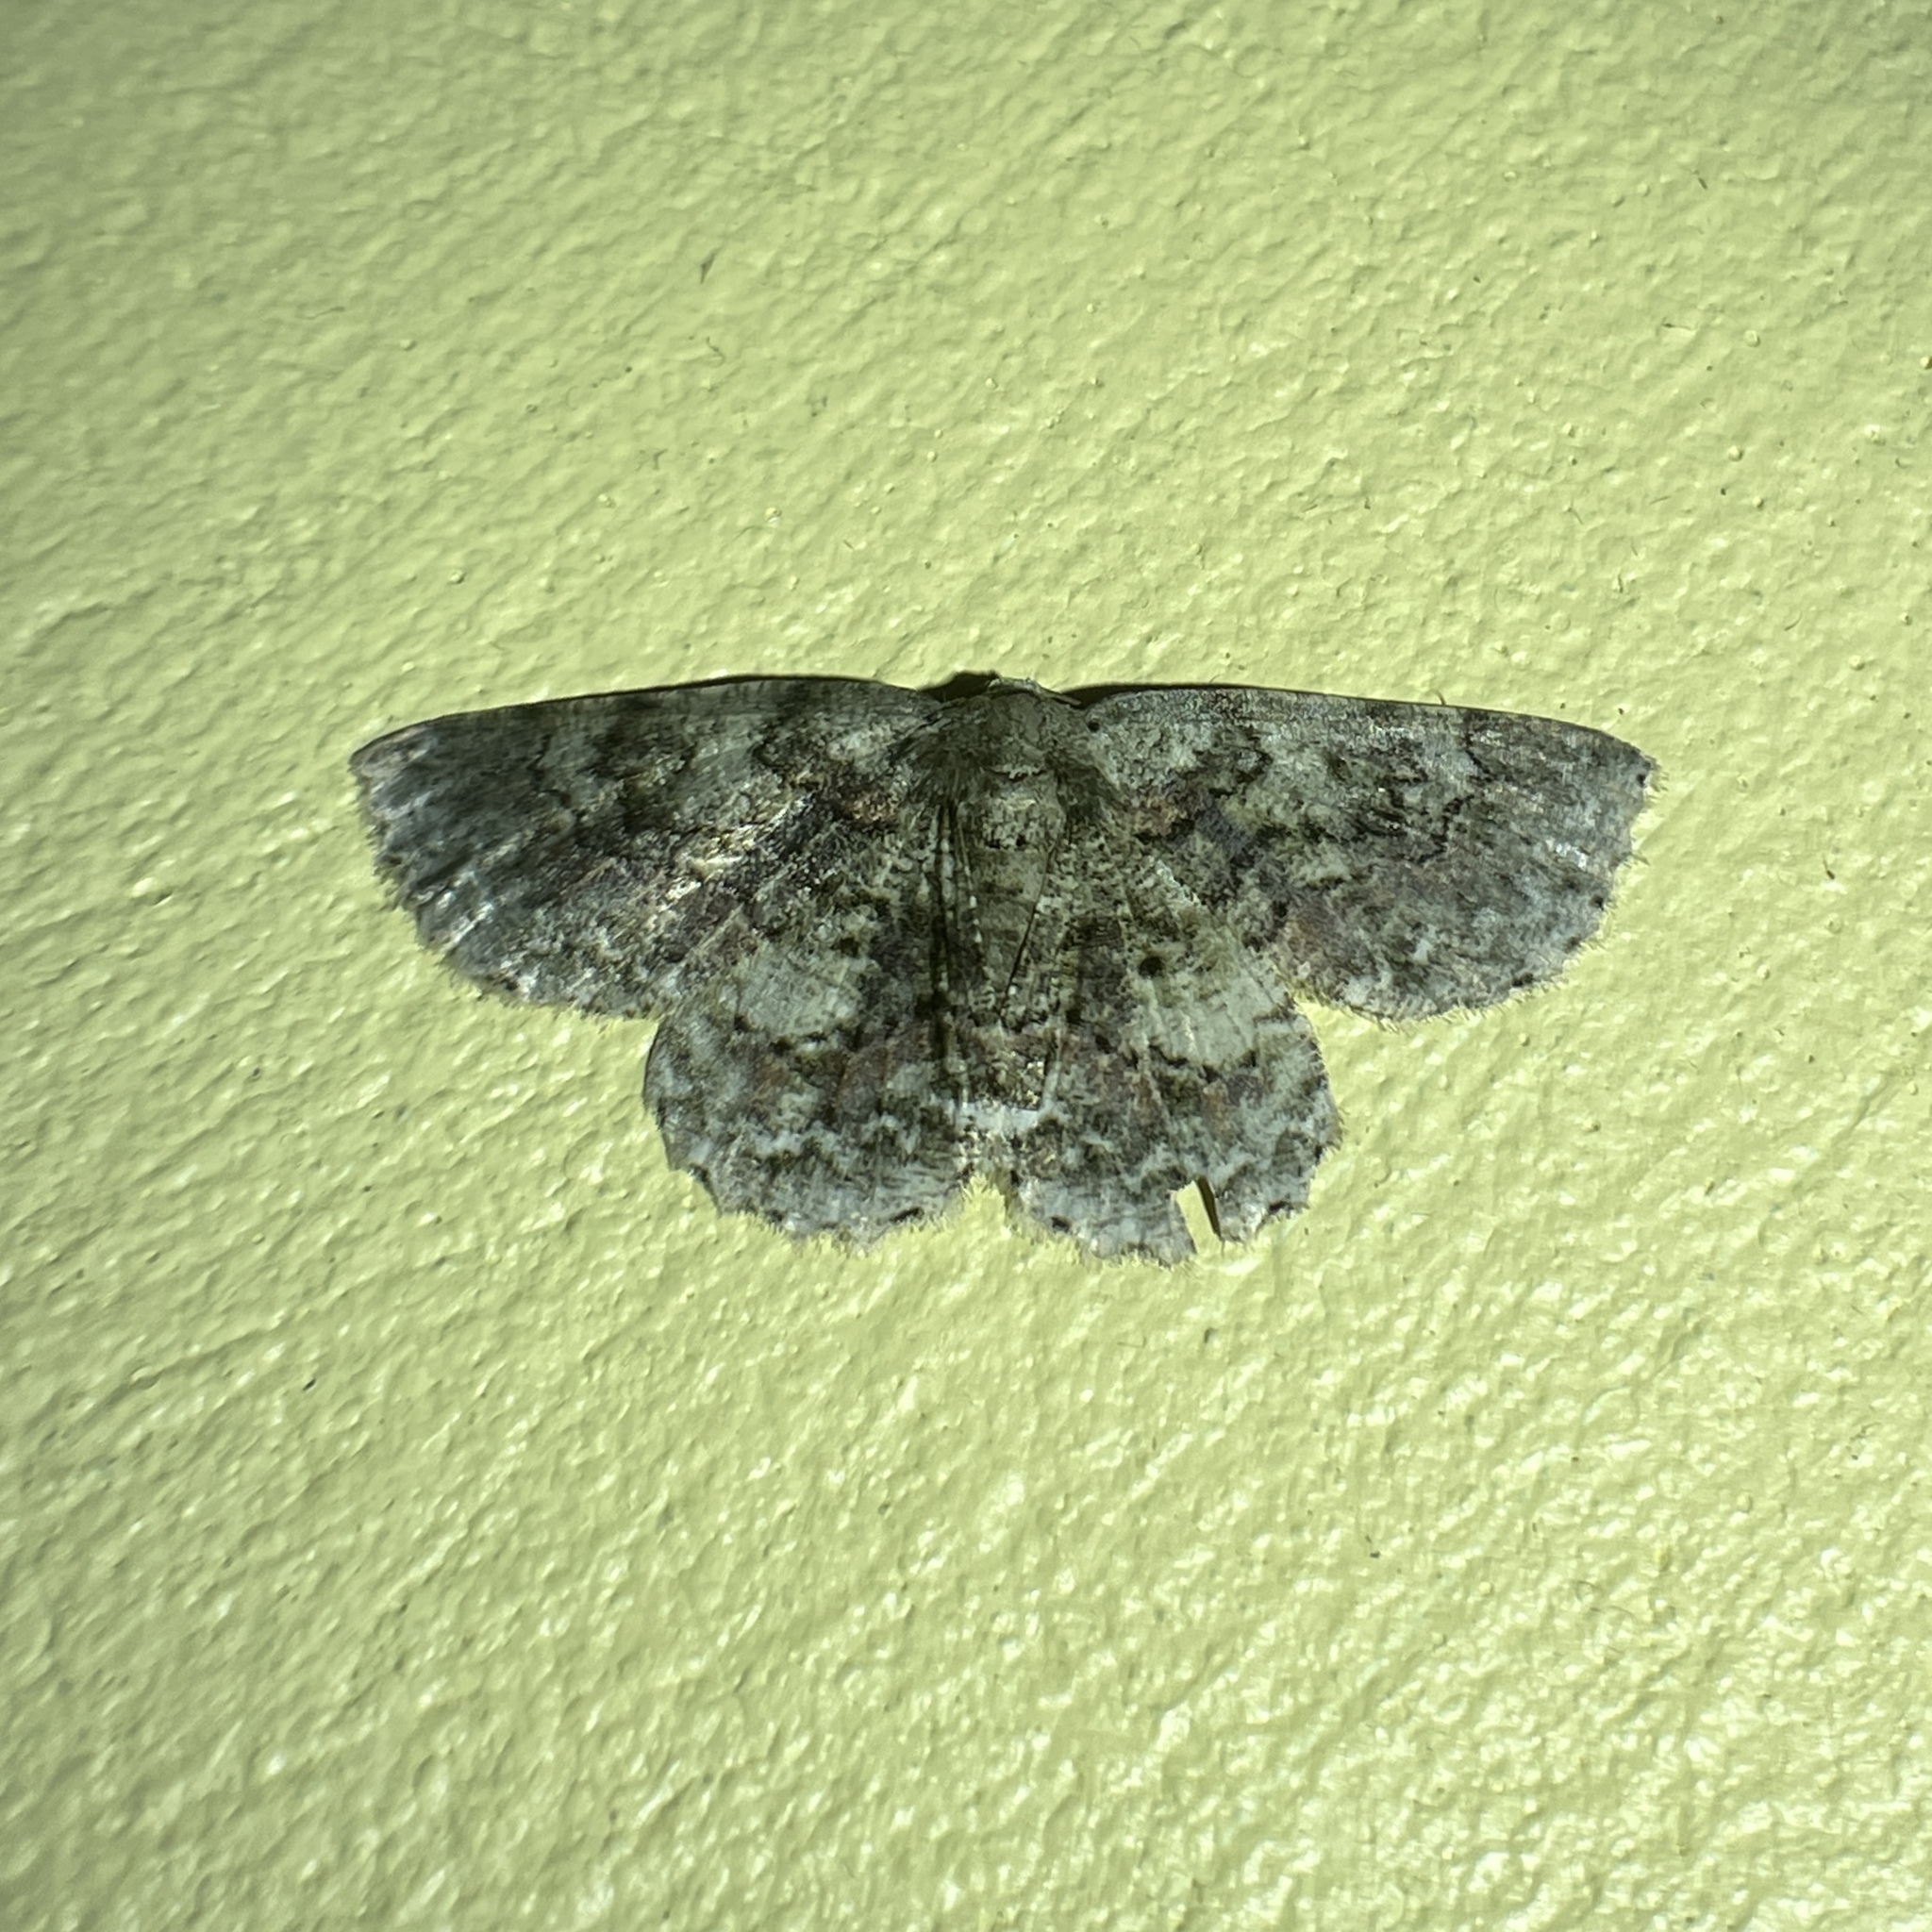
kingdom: Animalia
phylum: Arthropoda
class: Insecta
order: Lepidoptera
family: Geometridae
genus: Bryoptera
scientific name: Bryoptera hypomelas
